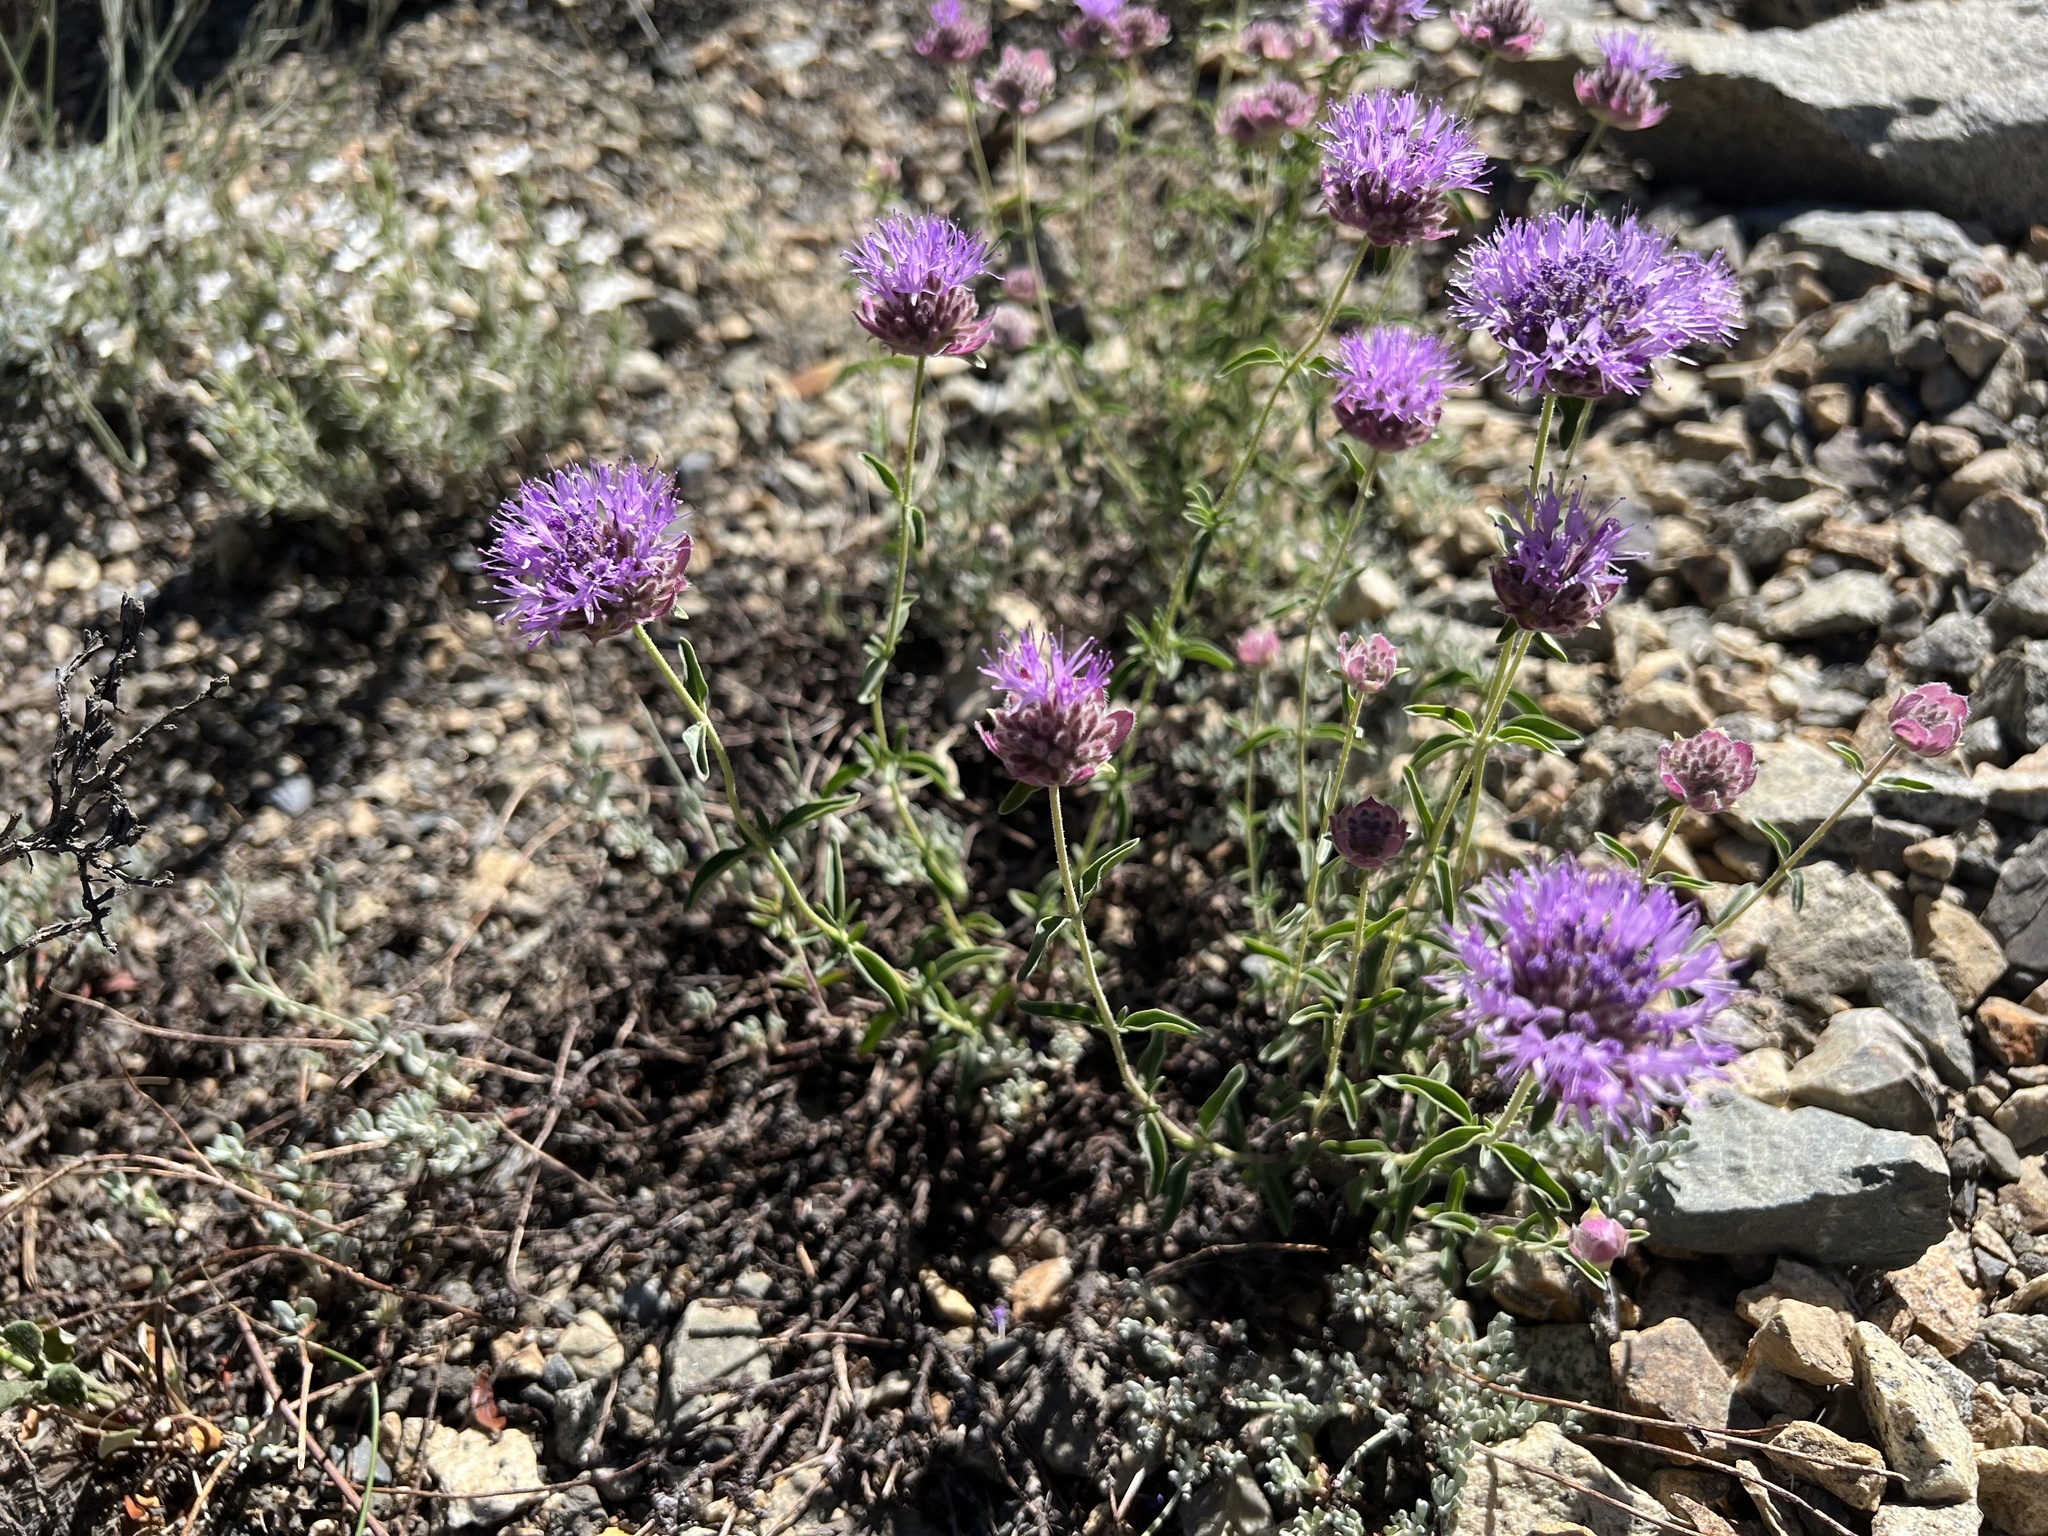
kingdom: Plantae
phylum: Tracheophyta
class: Magnoliopsida
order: Lamiales
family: Lamiaceae
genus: Monardella
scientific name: Monardella odoratissima
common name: Pacific monardella
